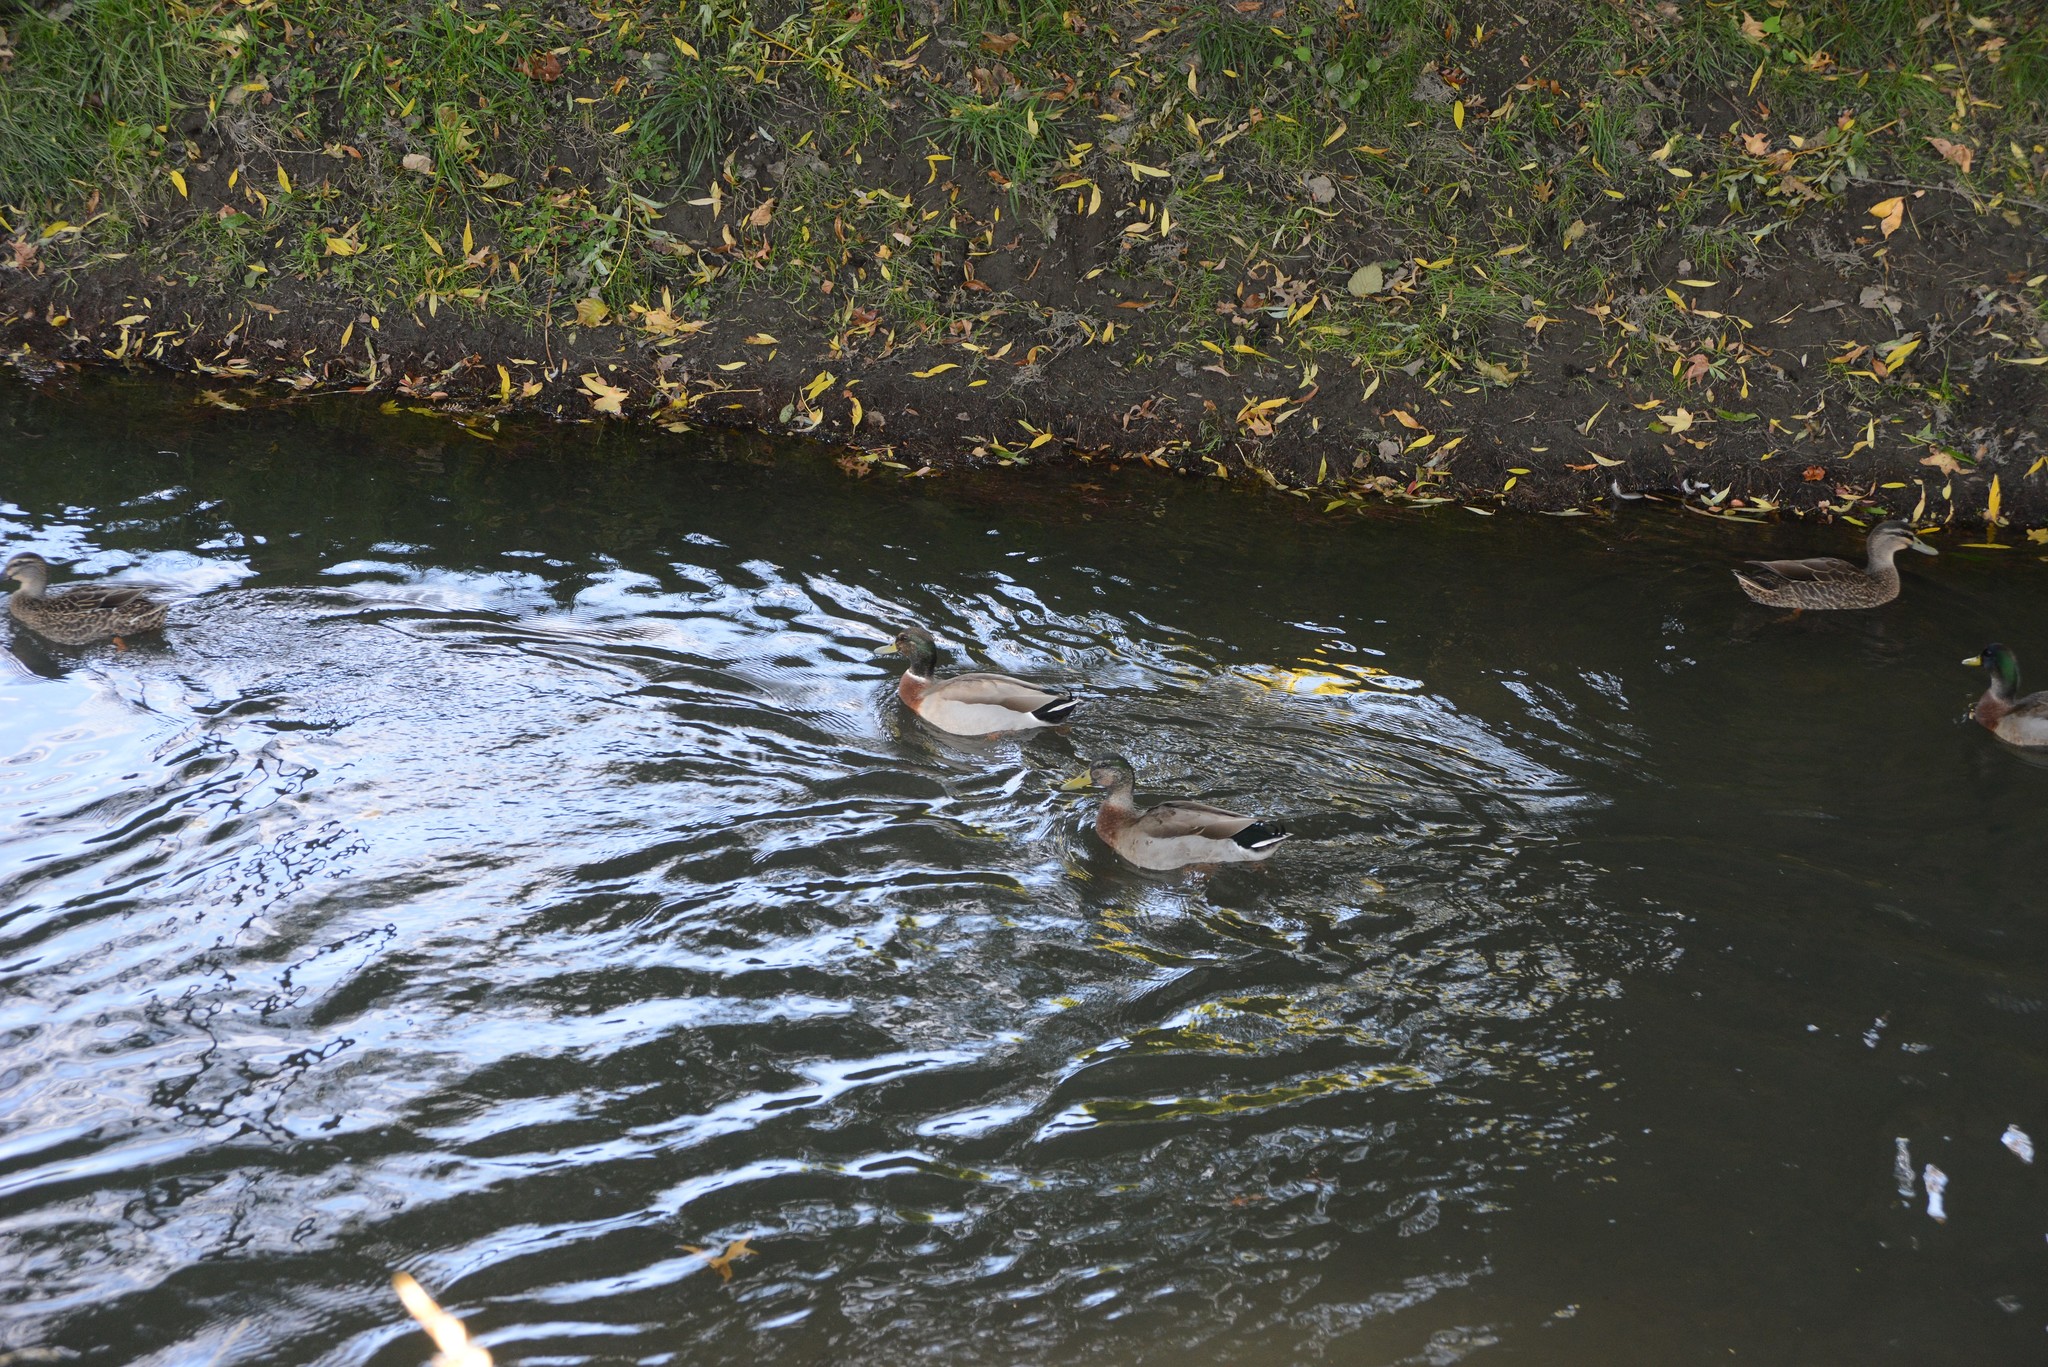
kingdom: Animalia
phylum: Chordata
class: Aves
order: Anseriformes
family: Anatidae
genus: Anas
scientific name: Anas platyrhynchos
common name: Mallard
